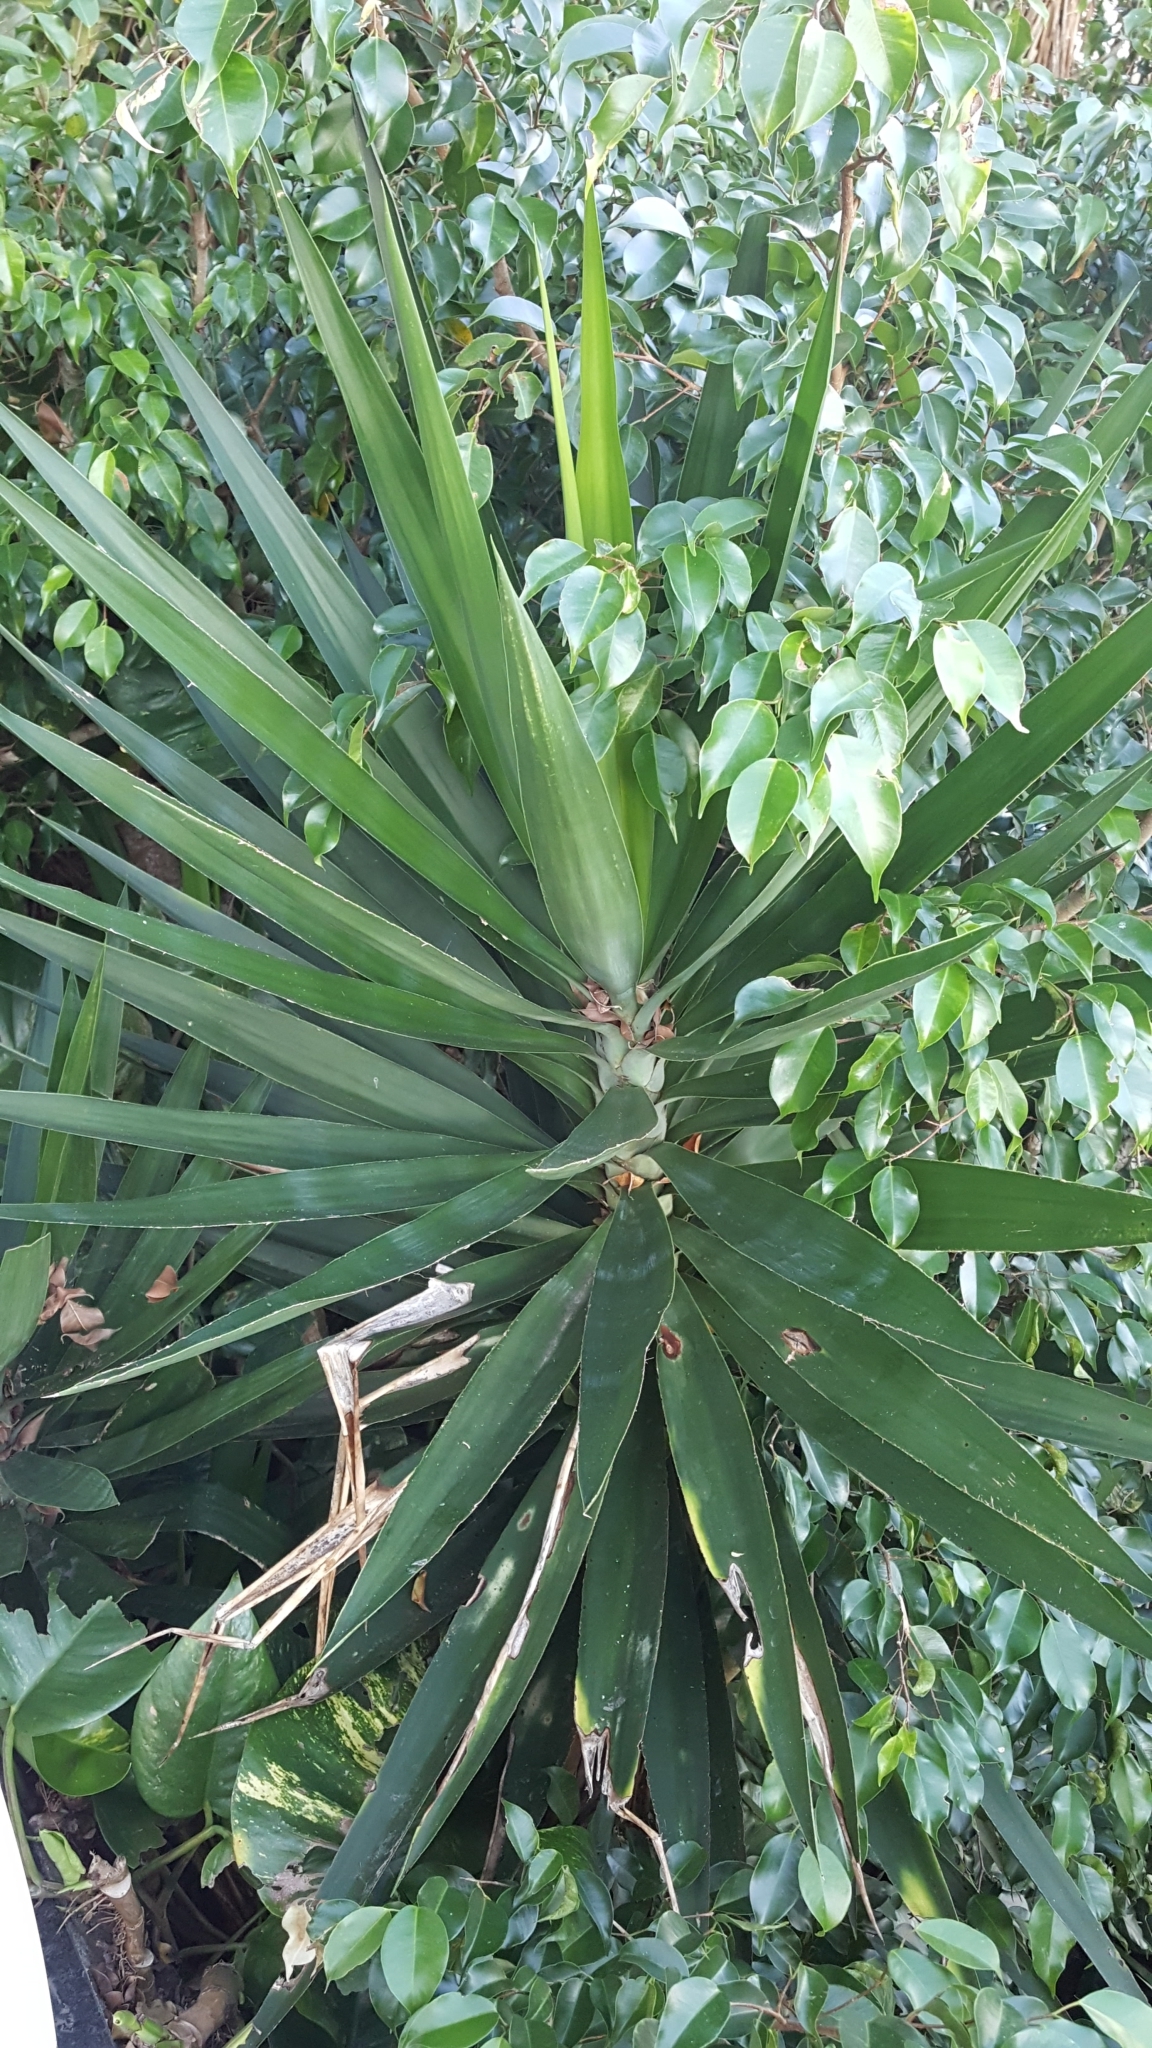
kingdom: Plantae
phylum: Tracheophyta
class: Liliopsida
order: Asparagales
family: Asparagaceae
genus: Yucca
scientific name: Yucca gigantea
